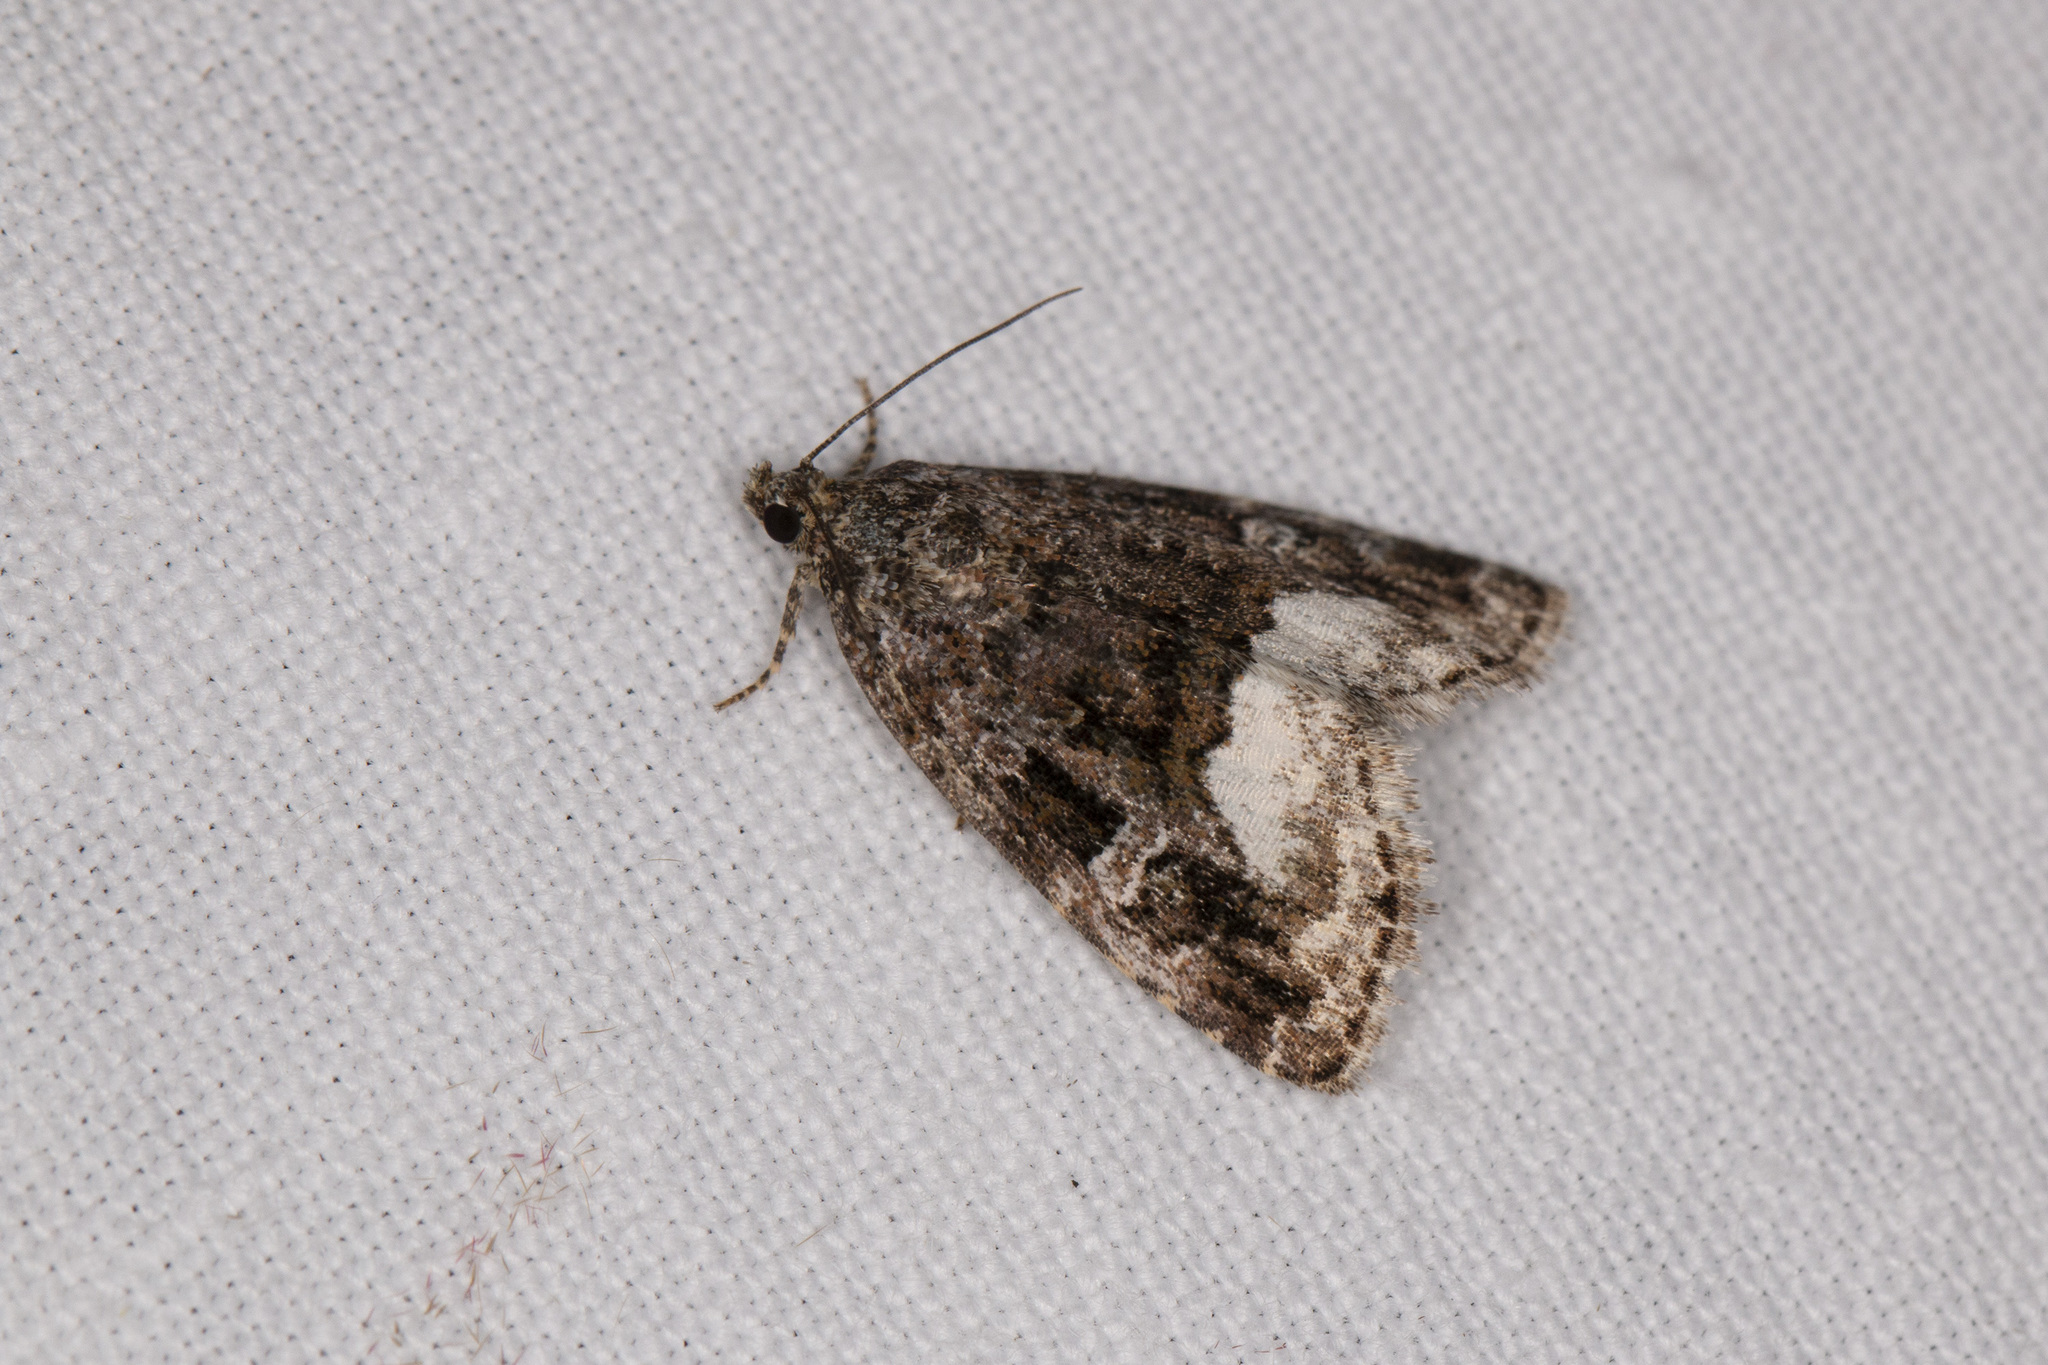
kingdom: Animalia
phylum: Arthropoda
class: Insecta
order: Lepidoptera
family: Noctuidae
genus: Deltote
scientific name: Deltote pygarga
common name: Marbled white spot
